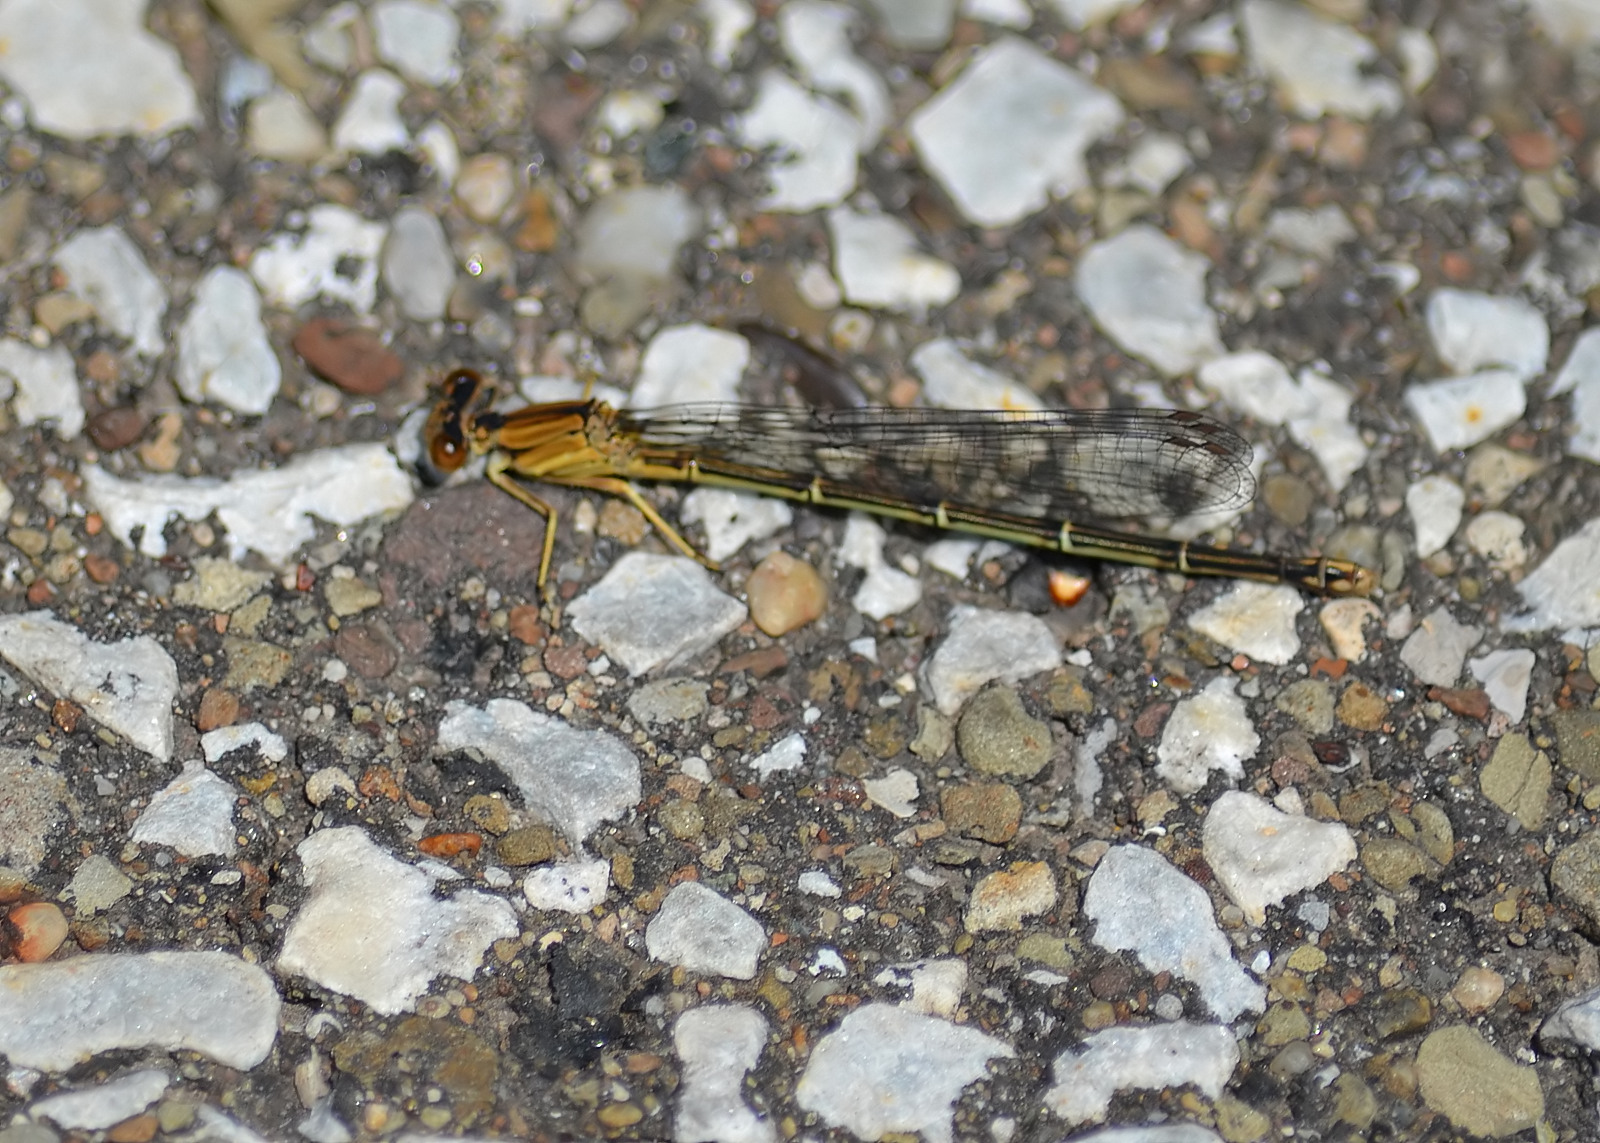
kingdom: Animalia
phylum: Arthropoda
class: Insecta
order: Odonata
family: Coenagrionidae
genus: Argia
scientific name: Argia
